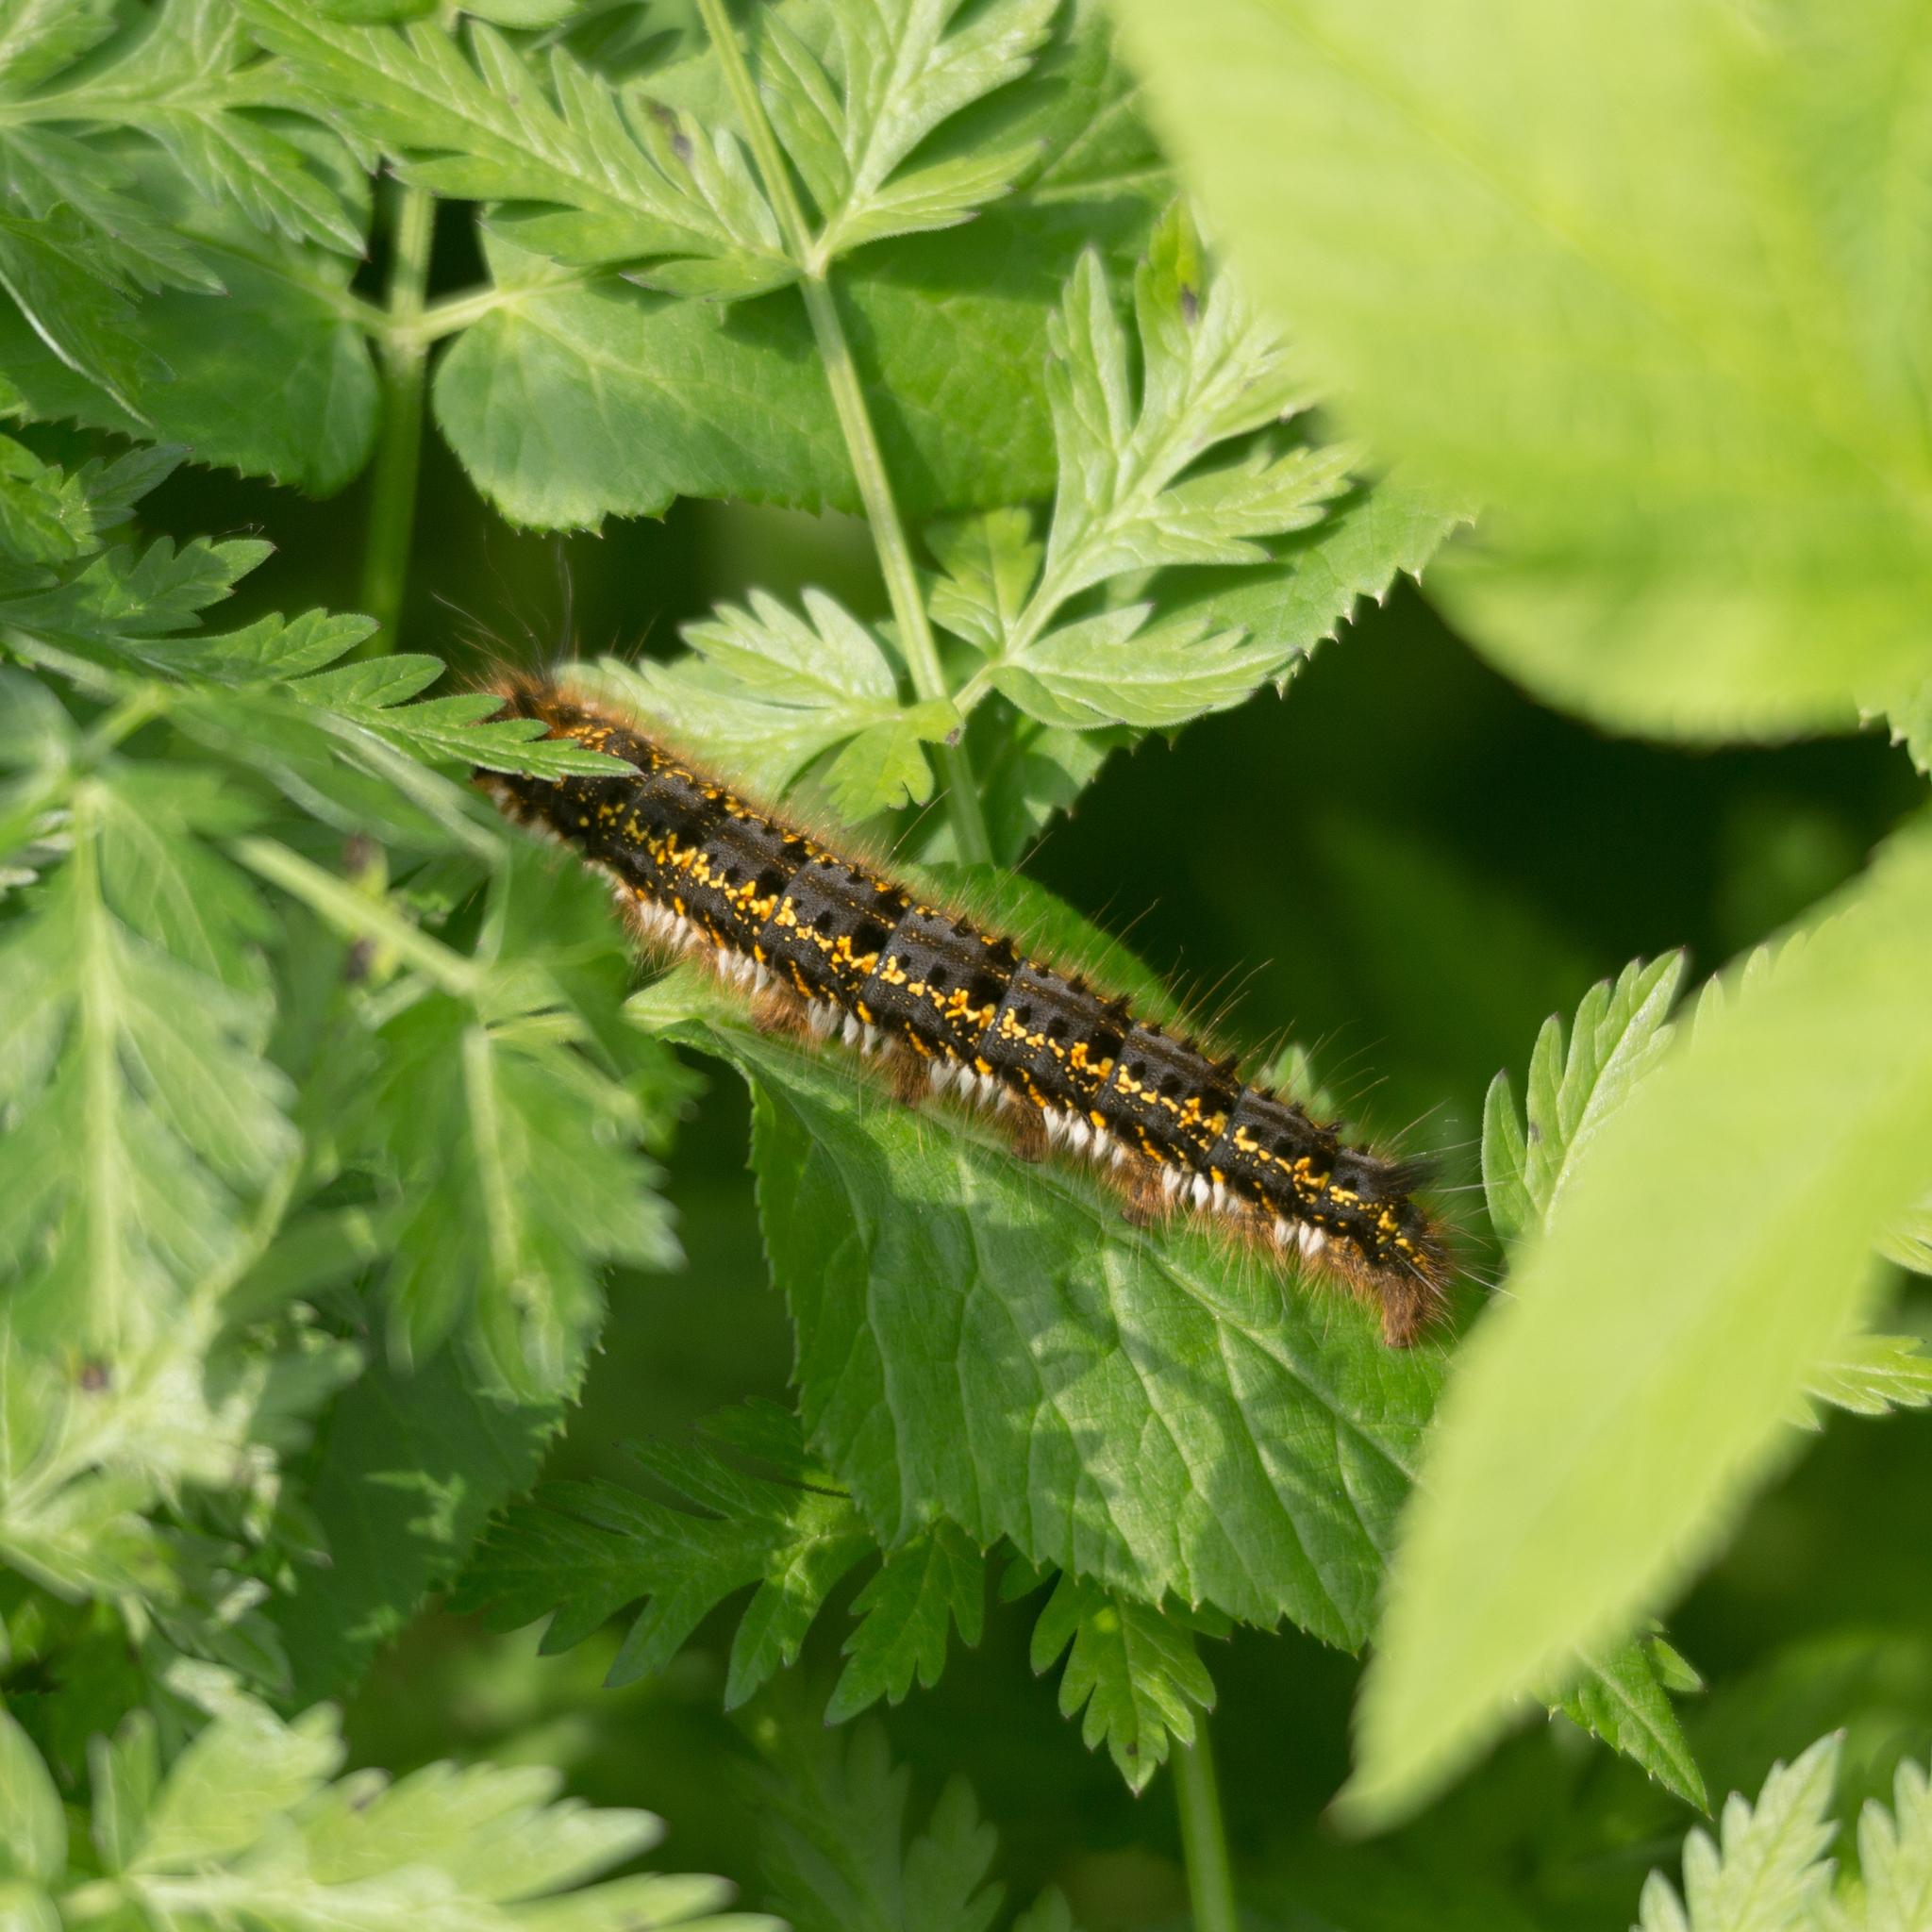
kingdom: Animalia
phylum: Arthropoda
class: Insecta
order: Lepidoptera
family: Lasiocampidae
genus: Euthrix
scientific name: Euthrix potatoria
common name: Drinker
